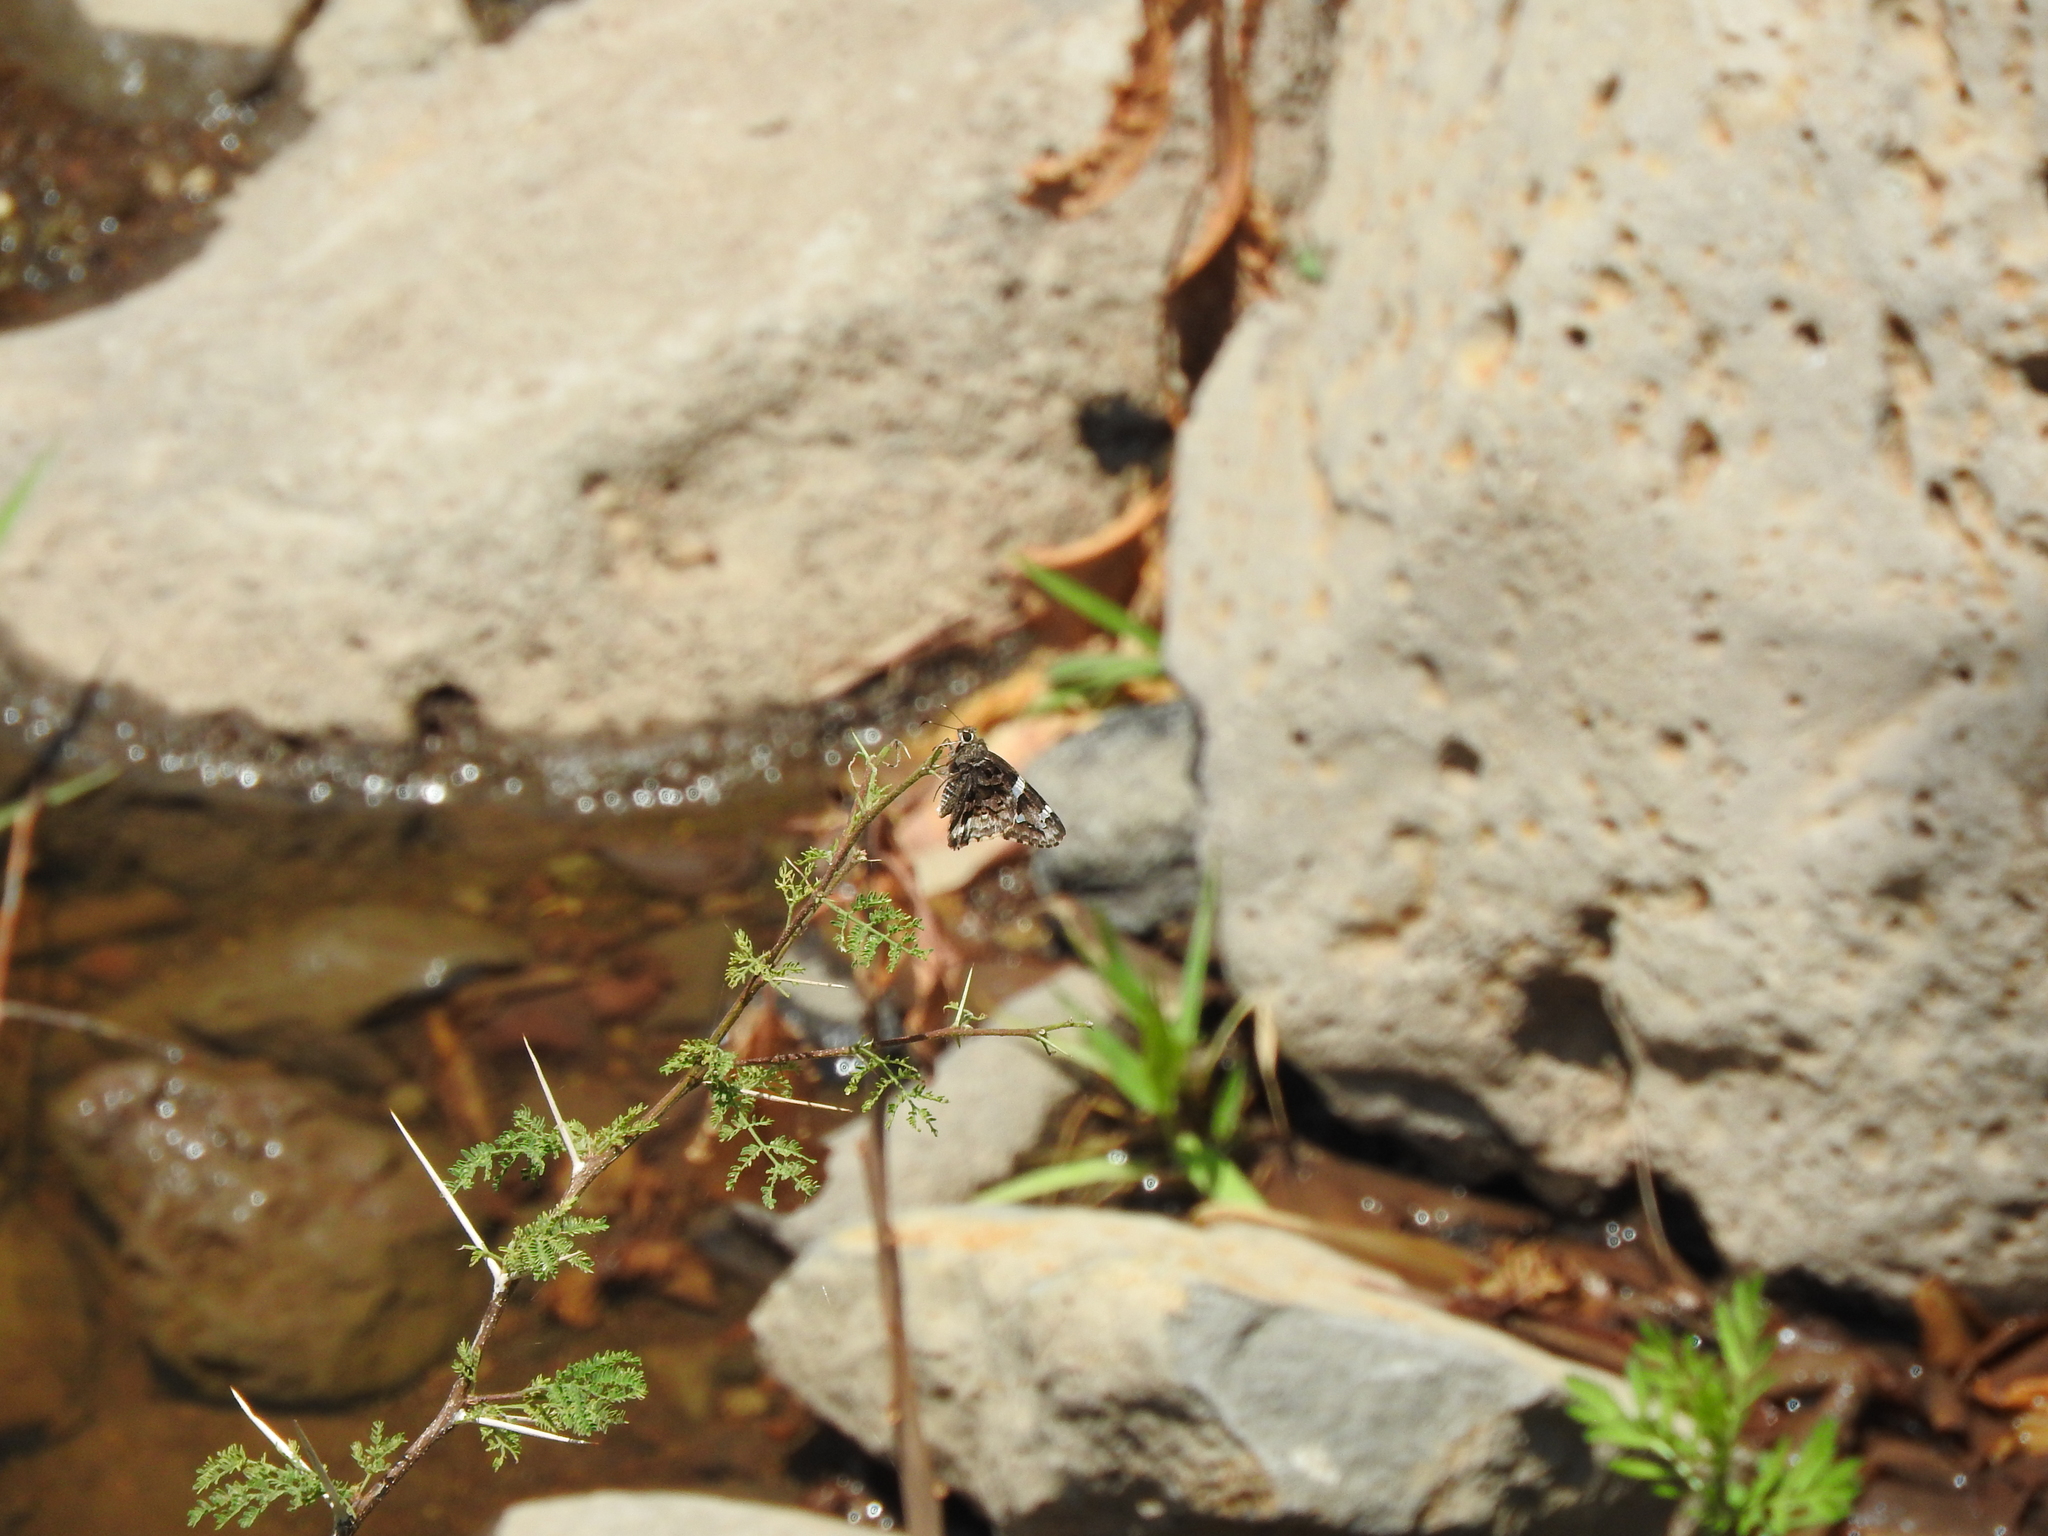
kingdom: Animalia
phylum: Arthropoda
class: Insecta
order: Lepidoptera
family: Hesperiidae
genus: Codatractus
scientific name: Codatractus arizonensis
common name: Arizona skipper
